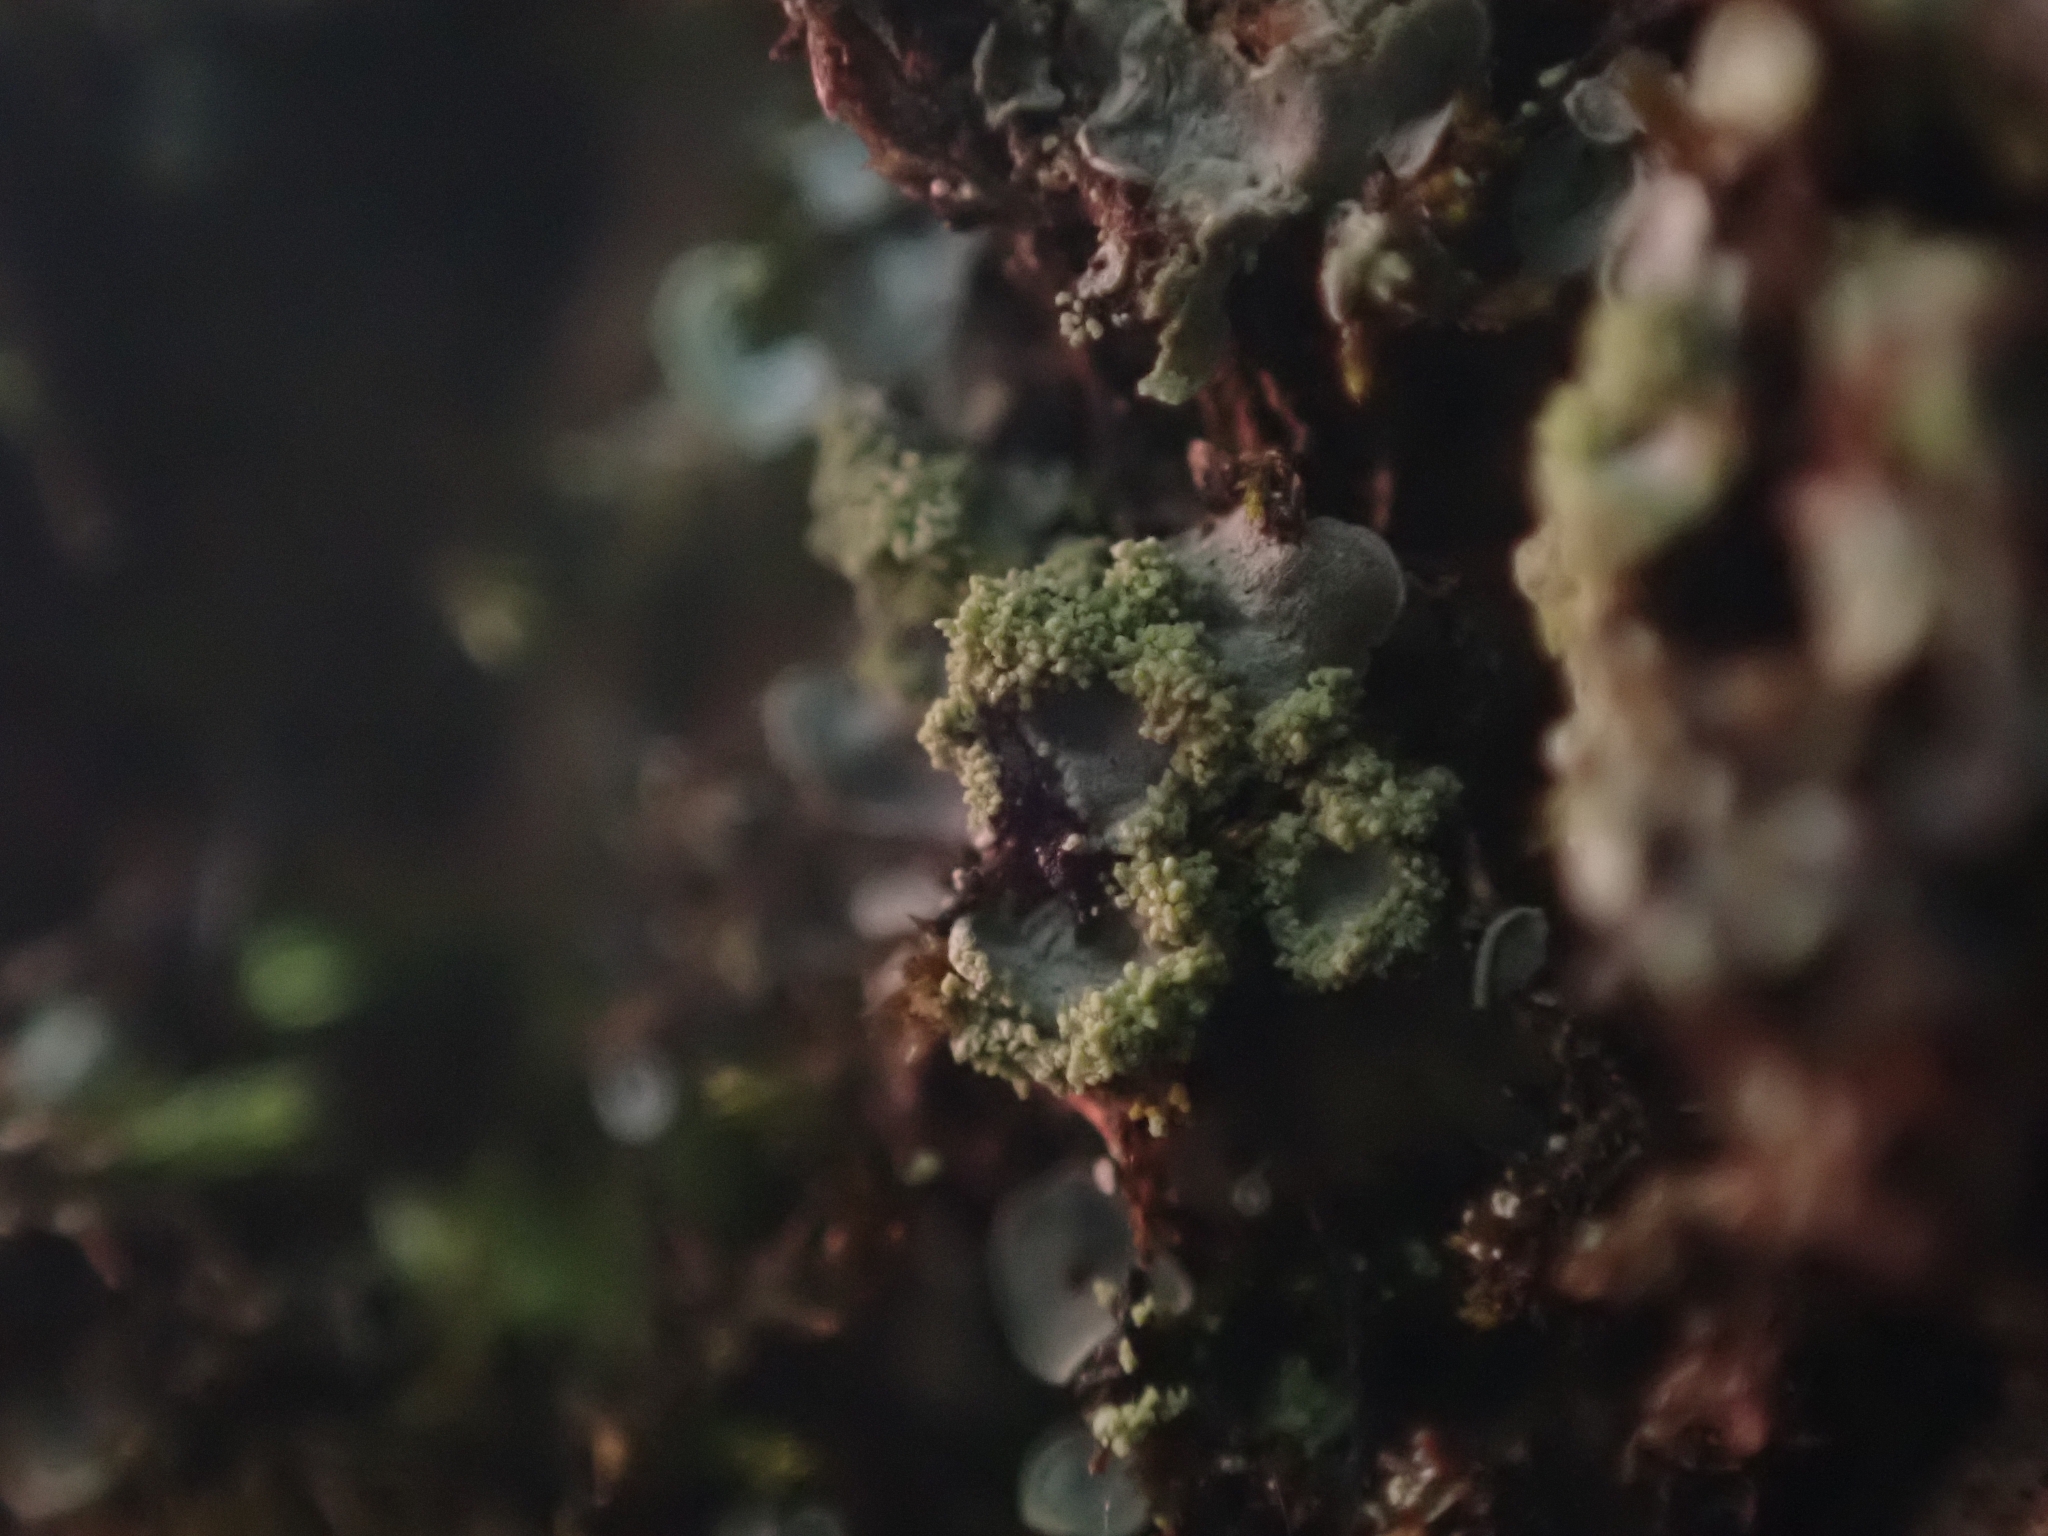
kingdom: Fungi
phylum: Ascomycota
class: Eurotiomycetes
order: Verrucariales
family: Verrucariaceae
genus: Normandina
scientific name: Normandina pulchella
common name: Elf ears lichen
